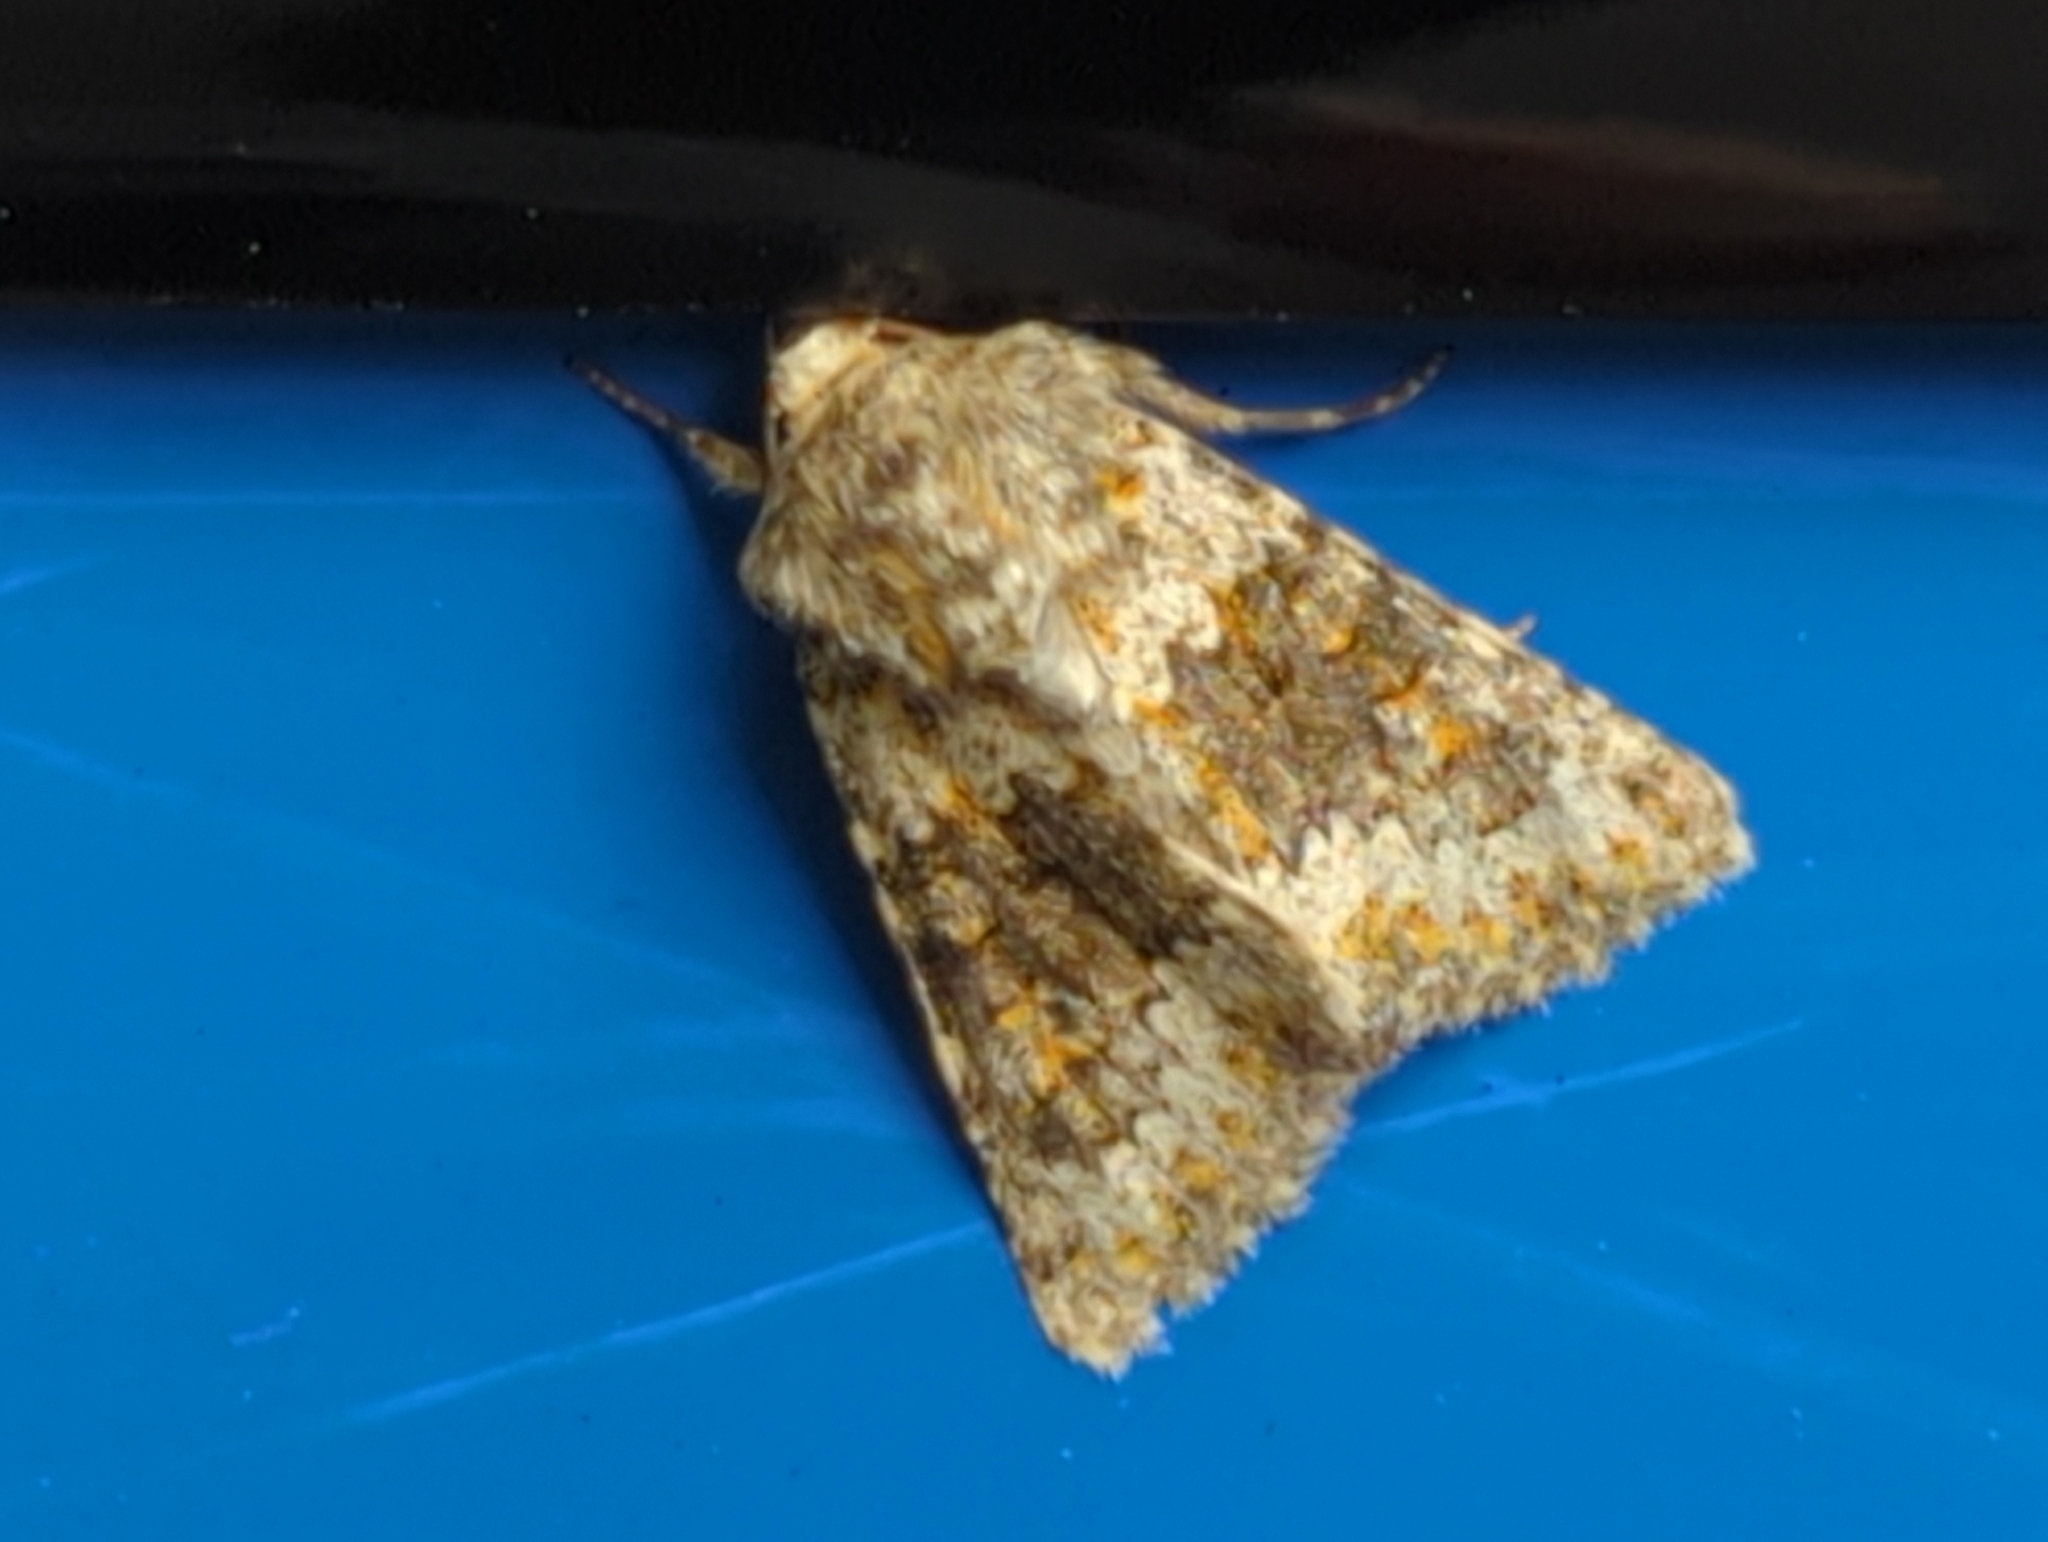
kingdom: Animalia
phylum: Arthropoda
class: Insecta
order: Lepidoptera
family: Noctuidae
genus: Hecatera
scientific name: Hecatera dysodea
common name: Small ranunculus
